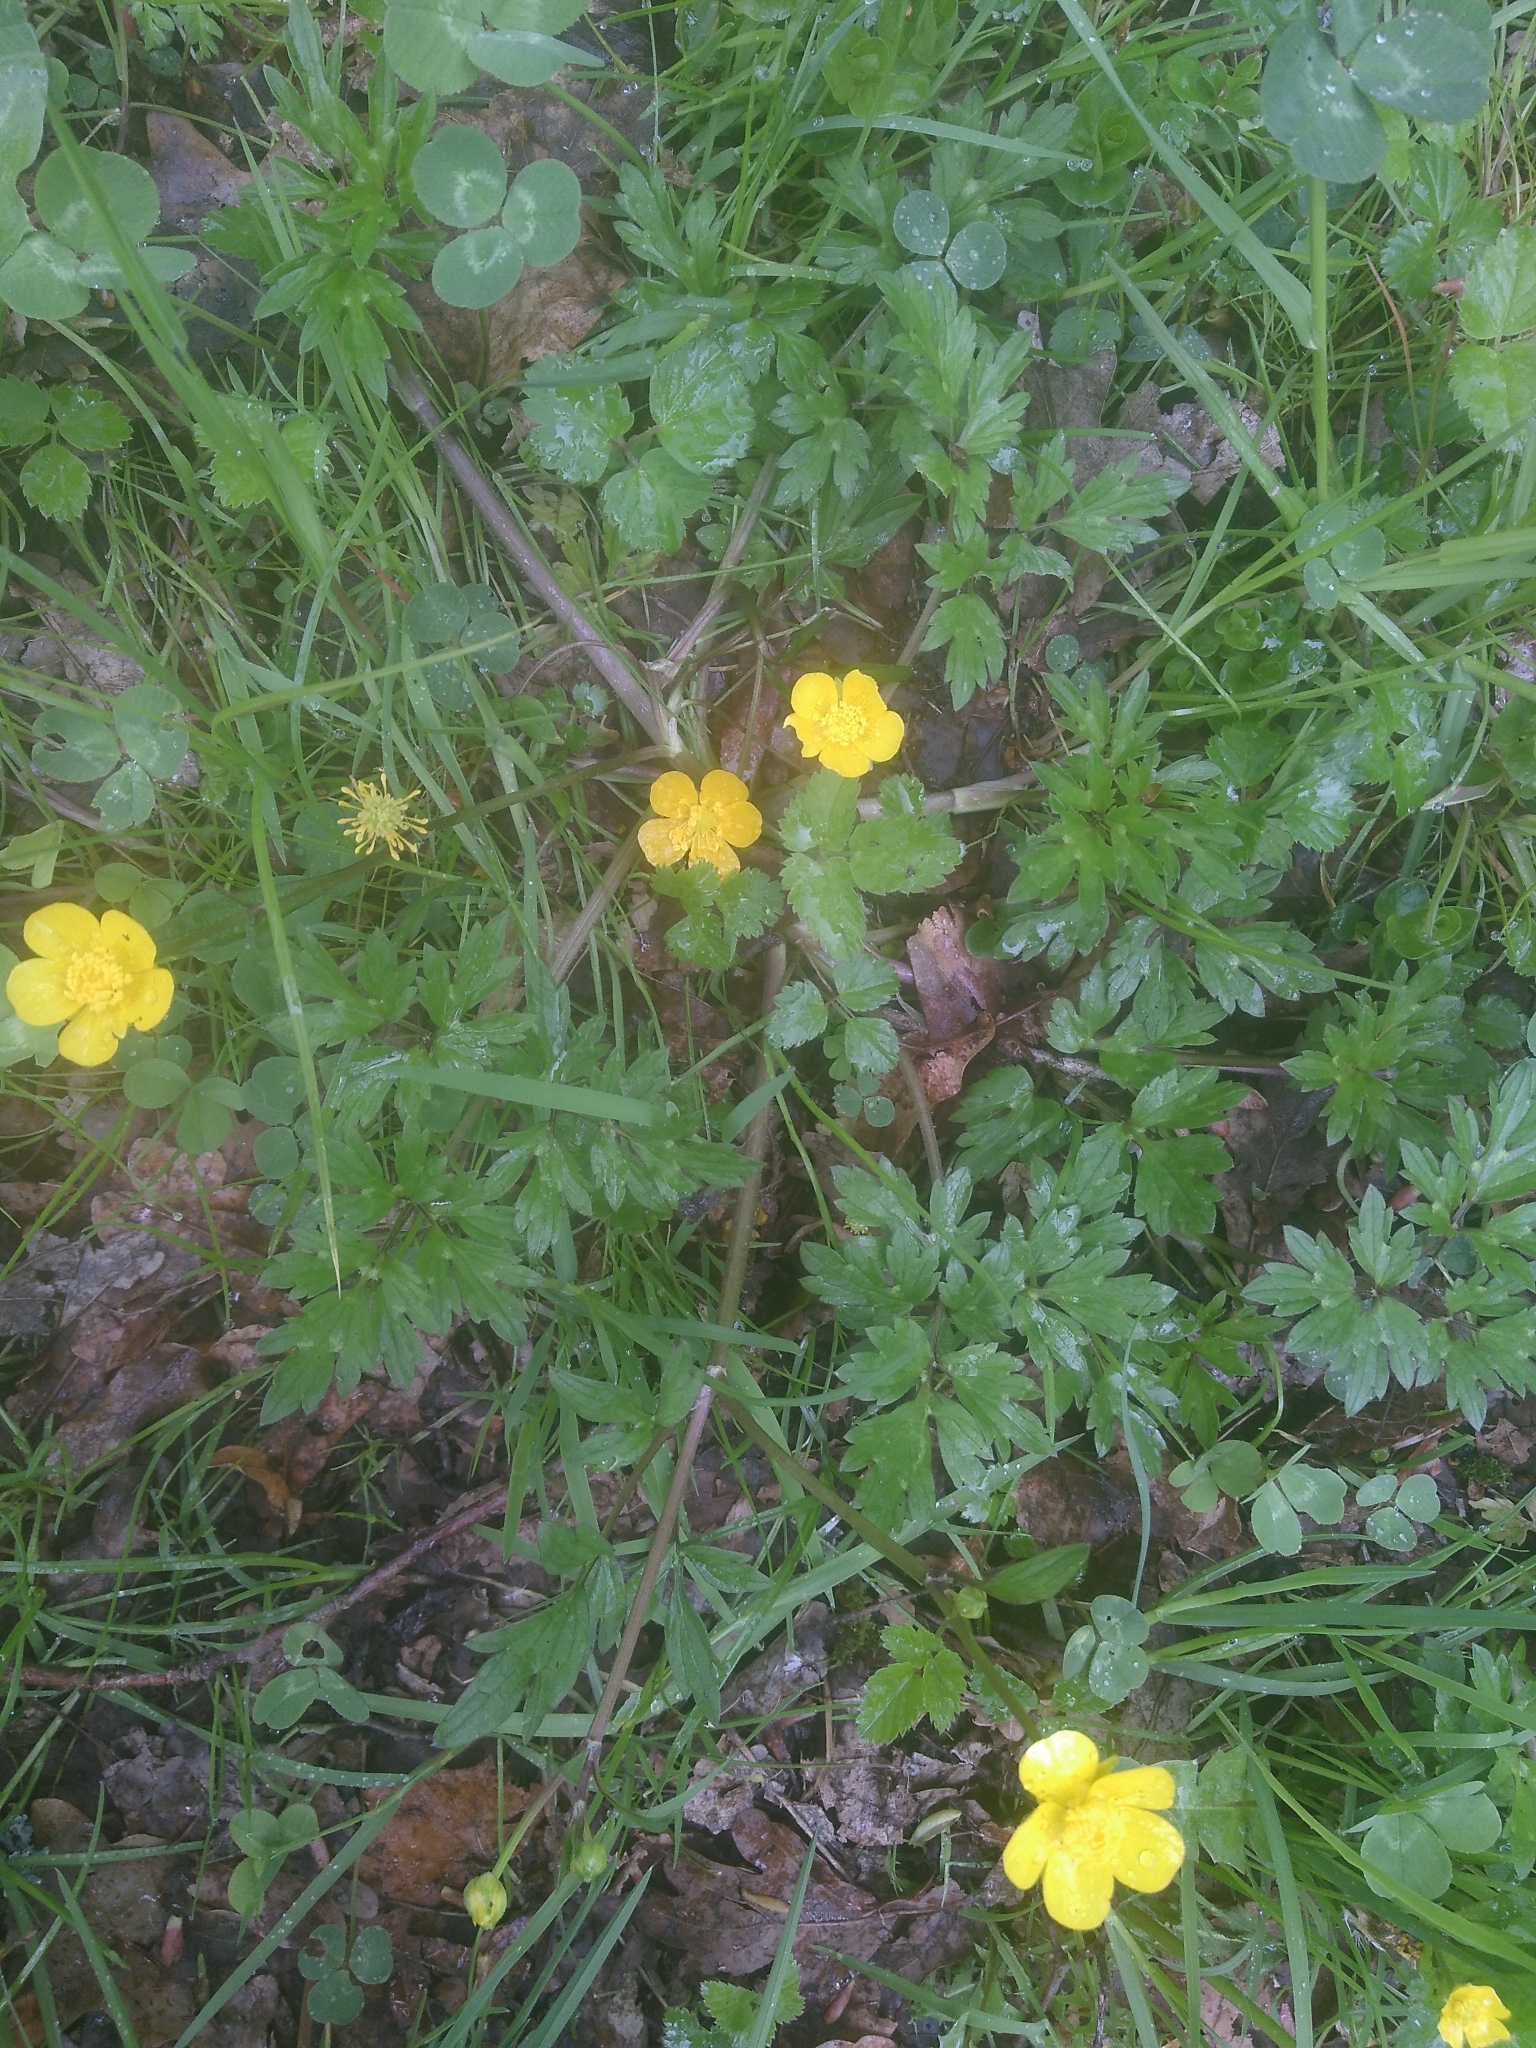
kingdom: Plantae
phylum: Tracheophyta
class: Magnoliopsida
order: Ranunculales
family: Ranunculaceae
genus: Ranunculus
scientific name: Ranunculus repens
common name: Creeping buttercup
